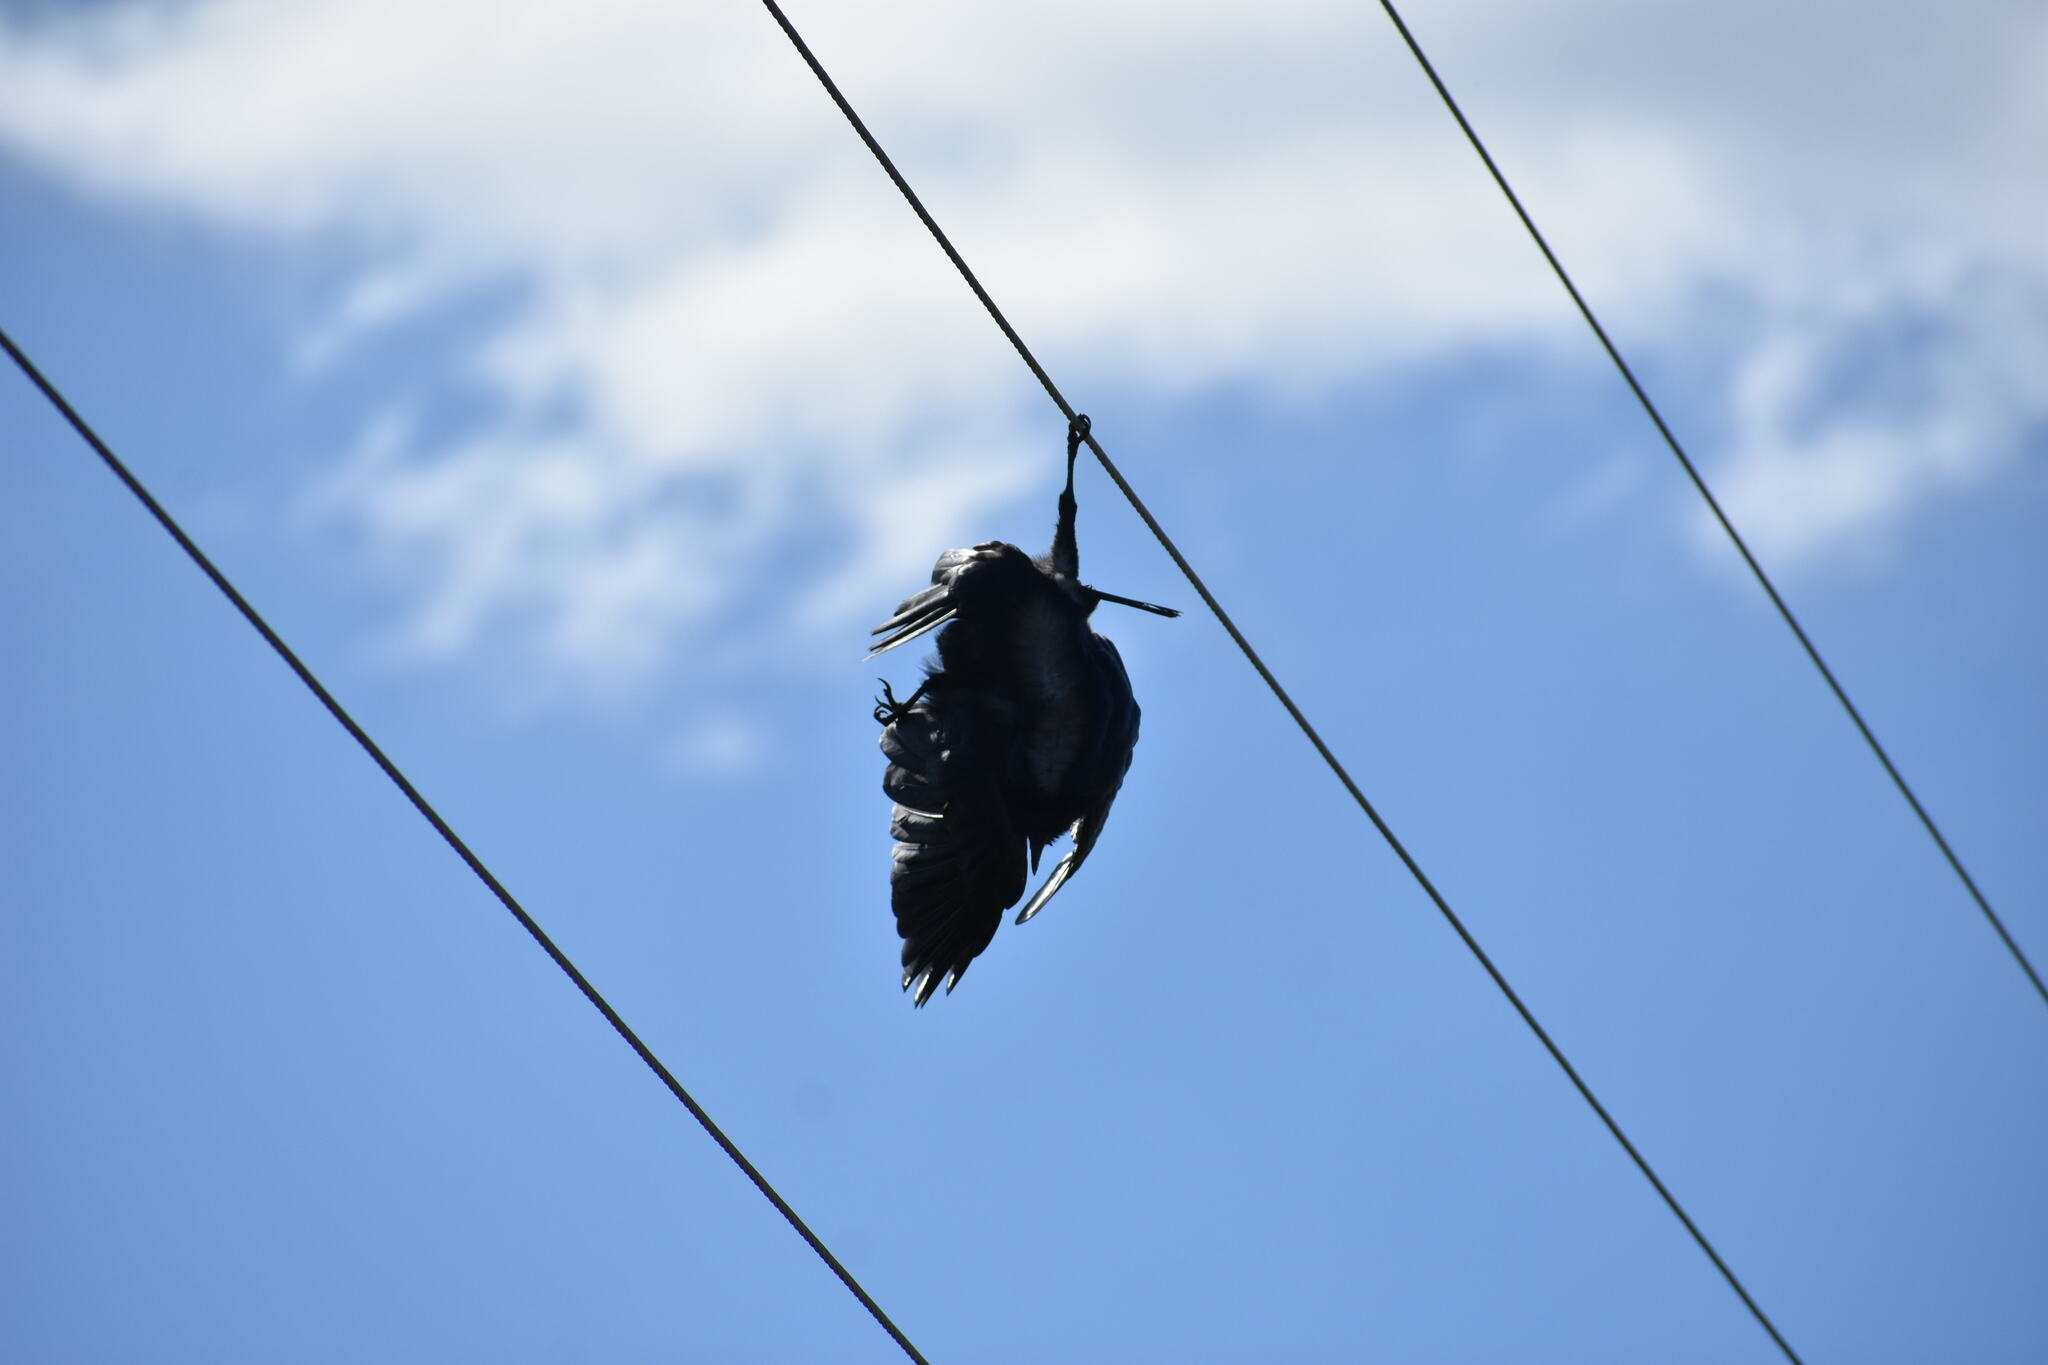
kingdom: Animalia
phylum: Chordata
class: Aves
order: Passeriformes
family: Corvidae
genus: Corvus
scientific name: Corvus
